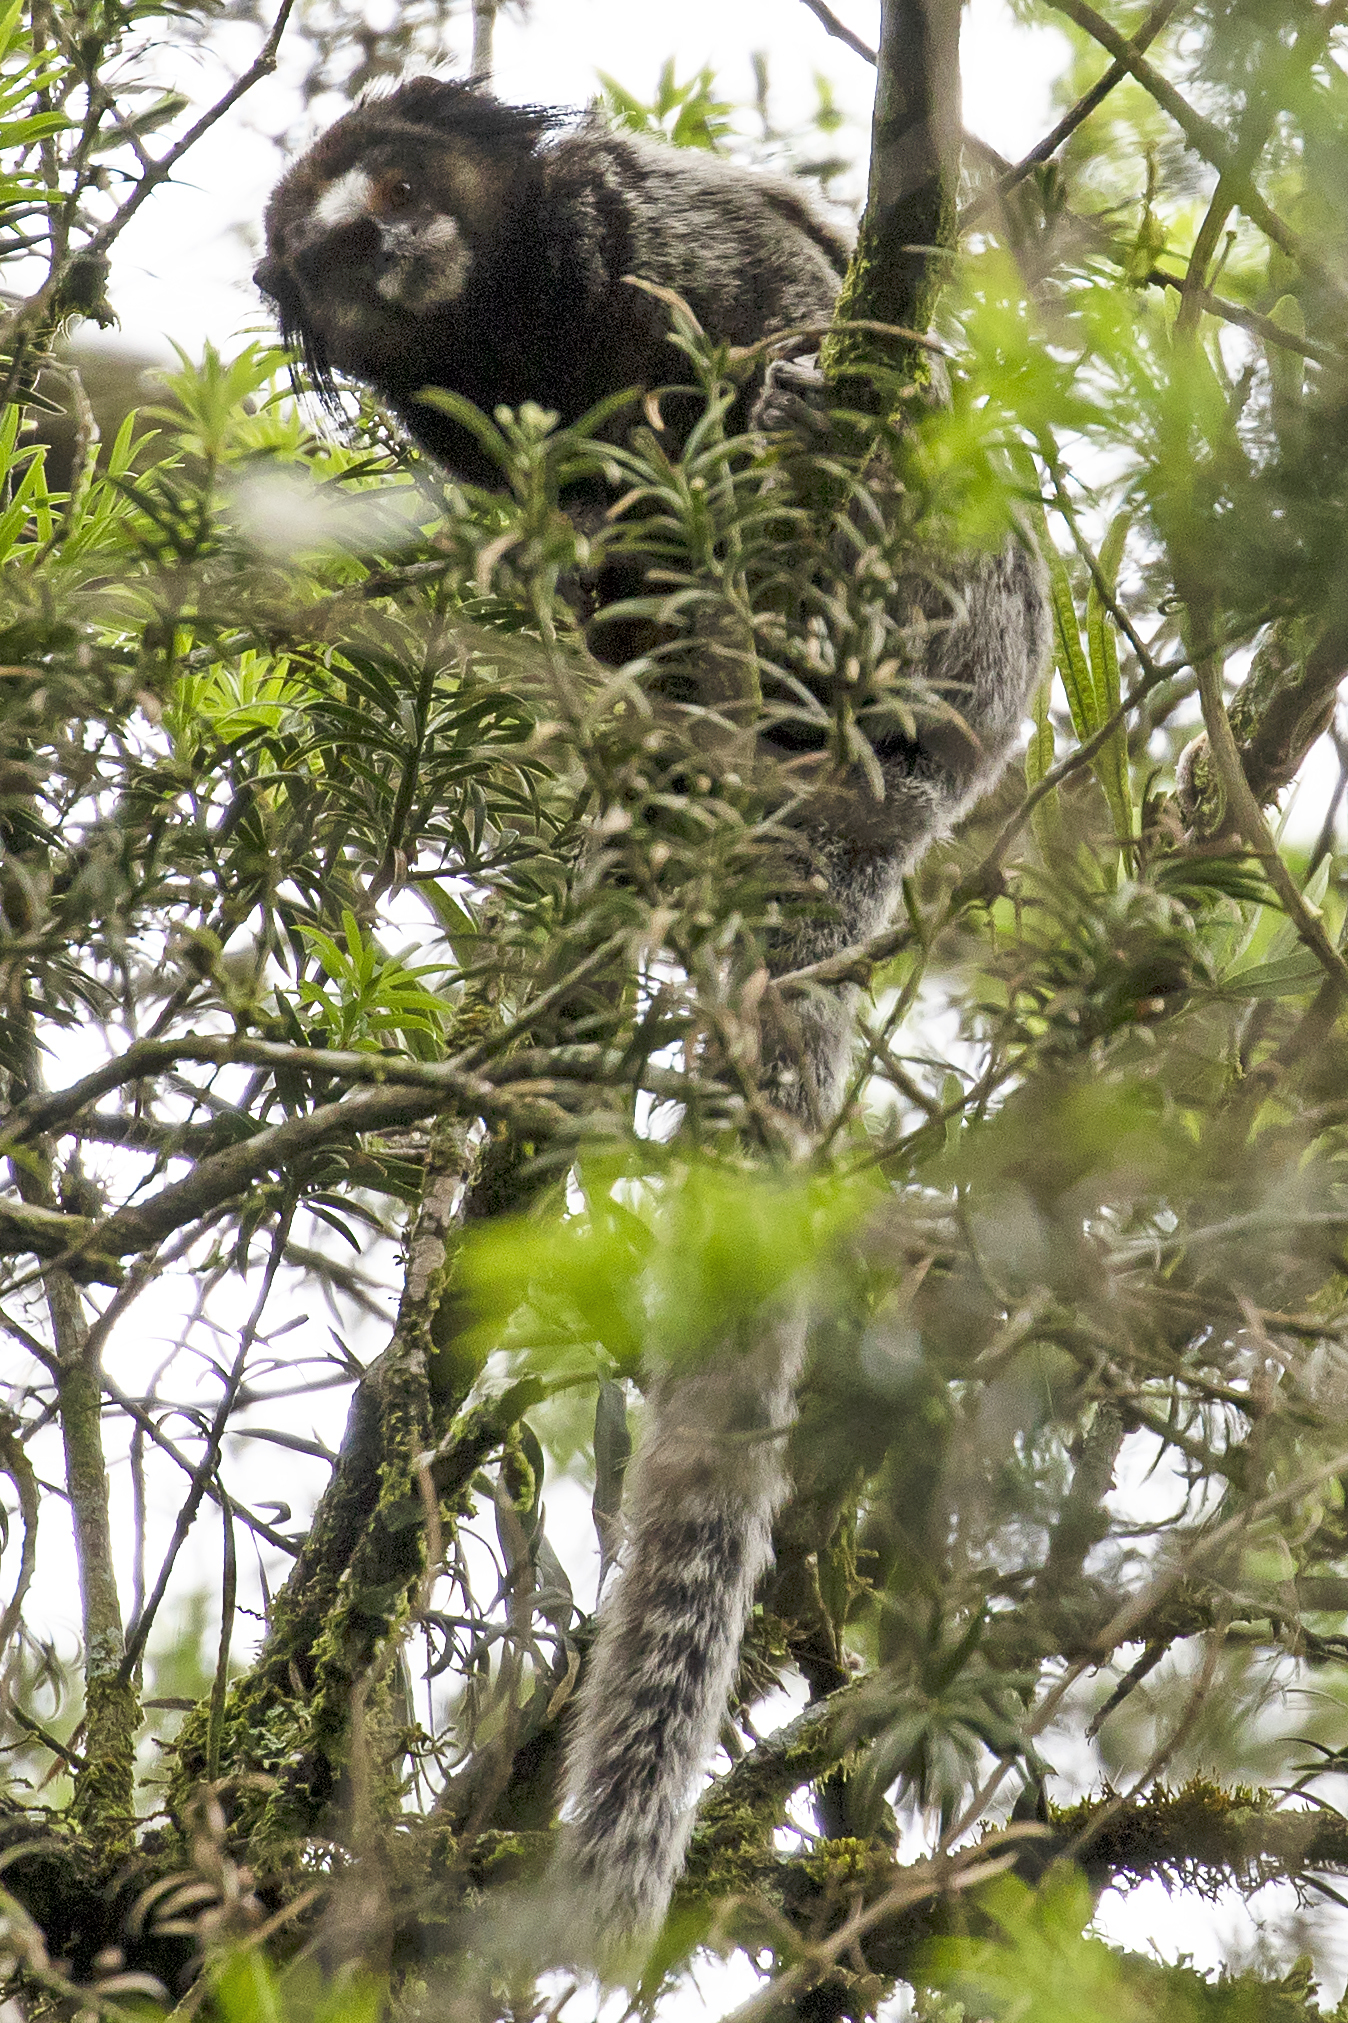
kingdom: Animalia
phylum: Chordata
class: Mammalia
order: Primates
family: Callitrichidae
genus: Callithrix
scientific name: Callithrix penicillata
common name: Black-tufted marmoset
